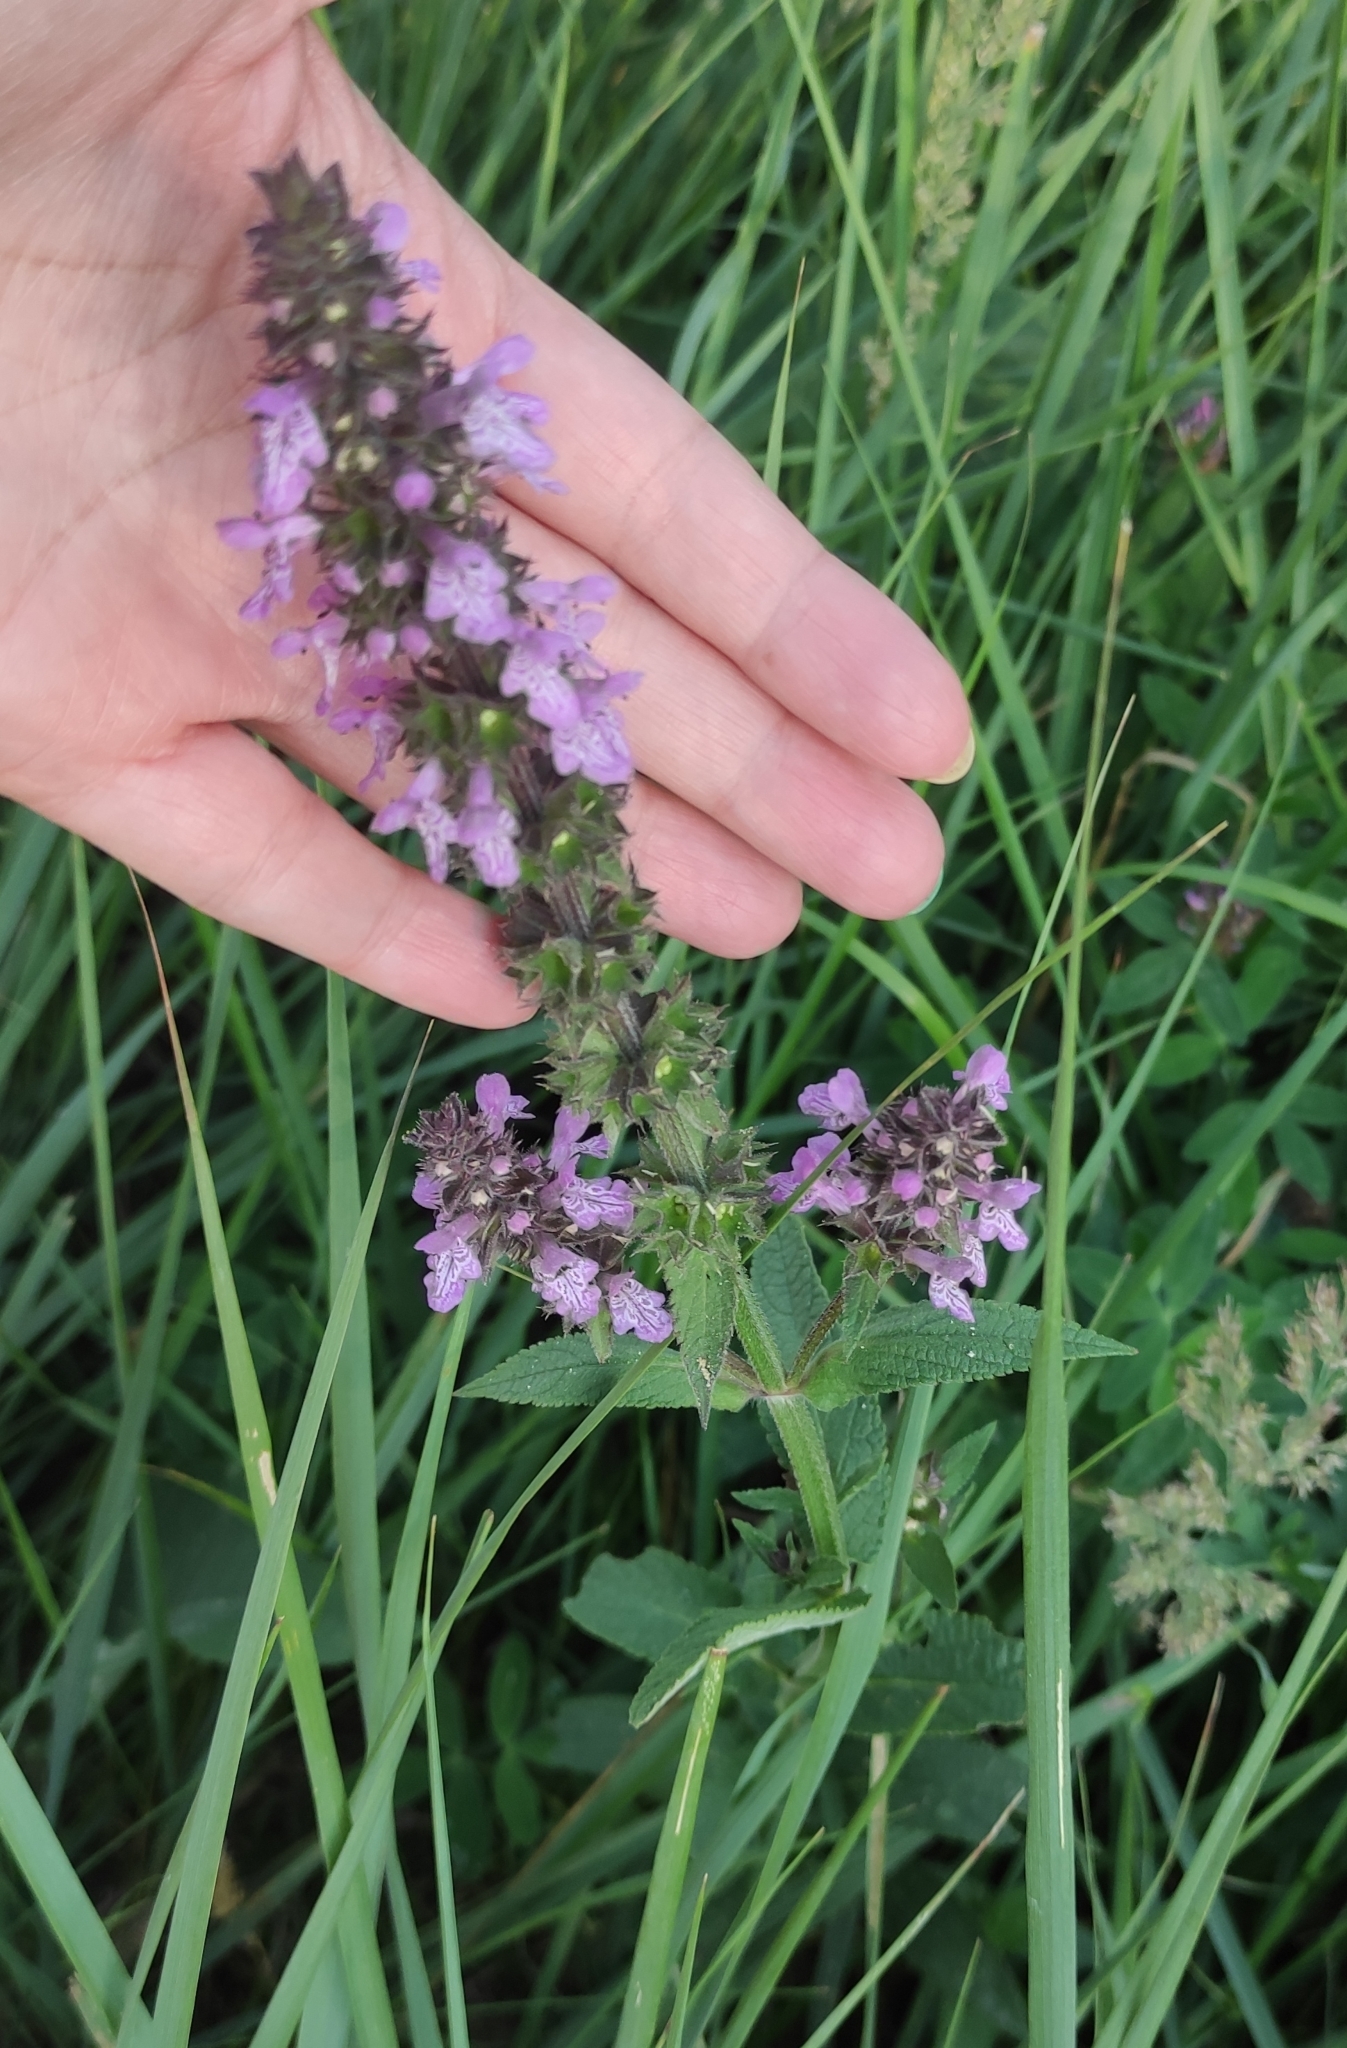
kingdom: Plantae
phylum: Tracheophyta
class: Magnoliopsida
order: Lamiales
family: Lamiaceae
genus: Stachys
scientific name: Stachys palustris
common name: Marsh woundwort
